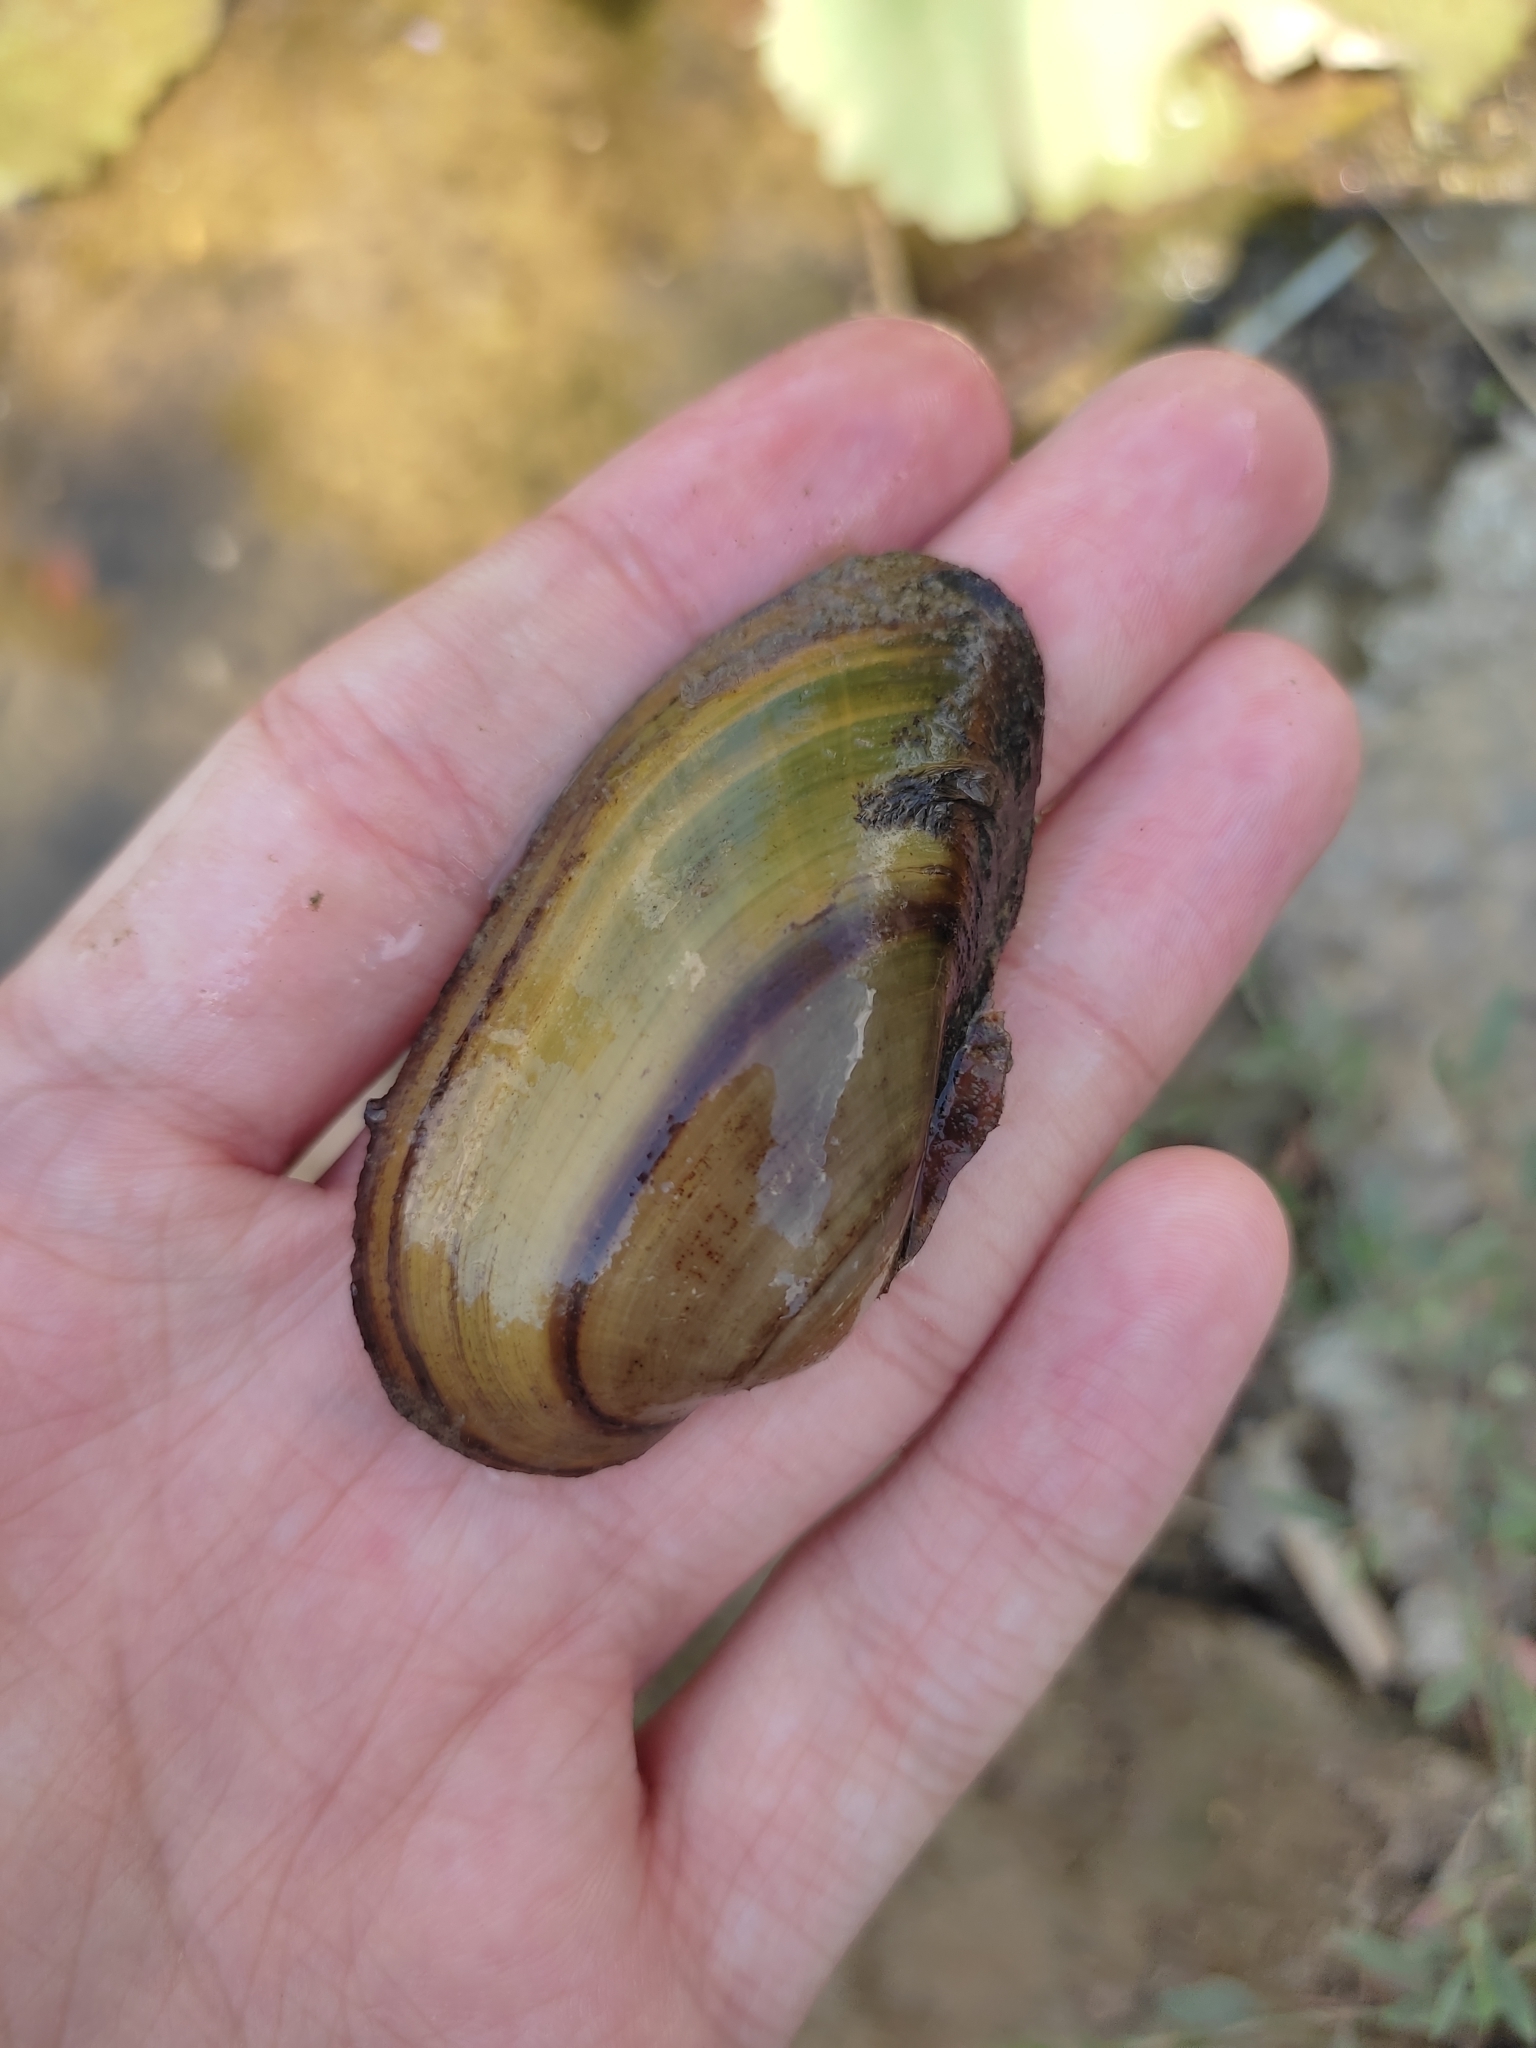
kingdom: Animalia
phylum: Mollusca
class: Bivalvia
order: Unionida
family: Unionidae
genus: Unio
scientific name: Unio tumidus
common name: Swollen river mussel
